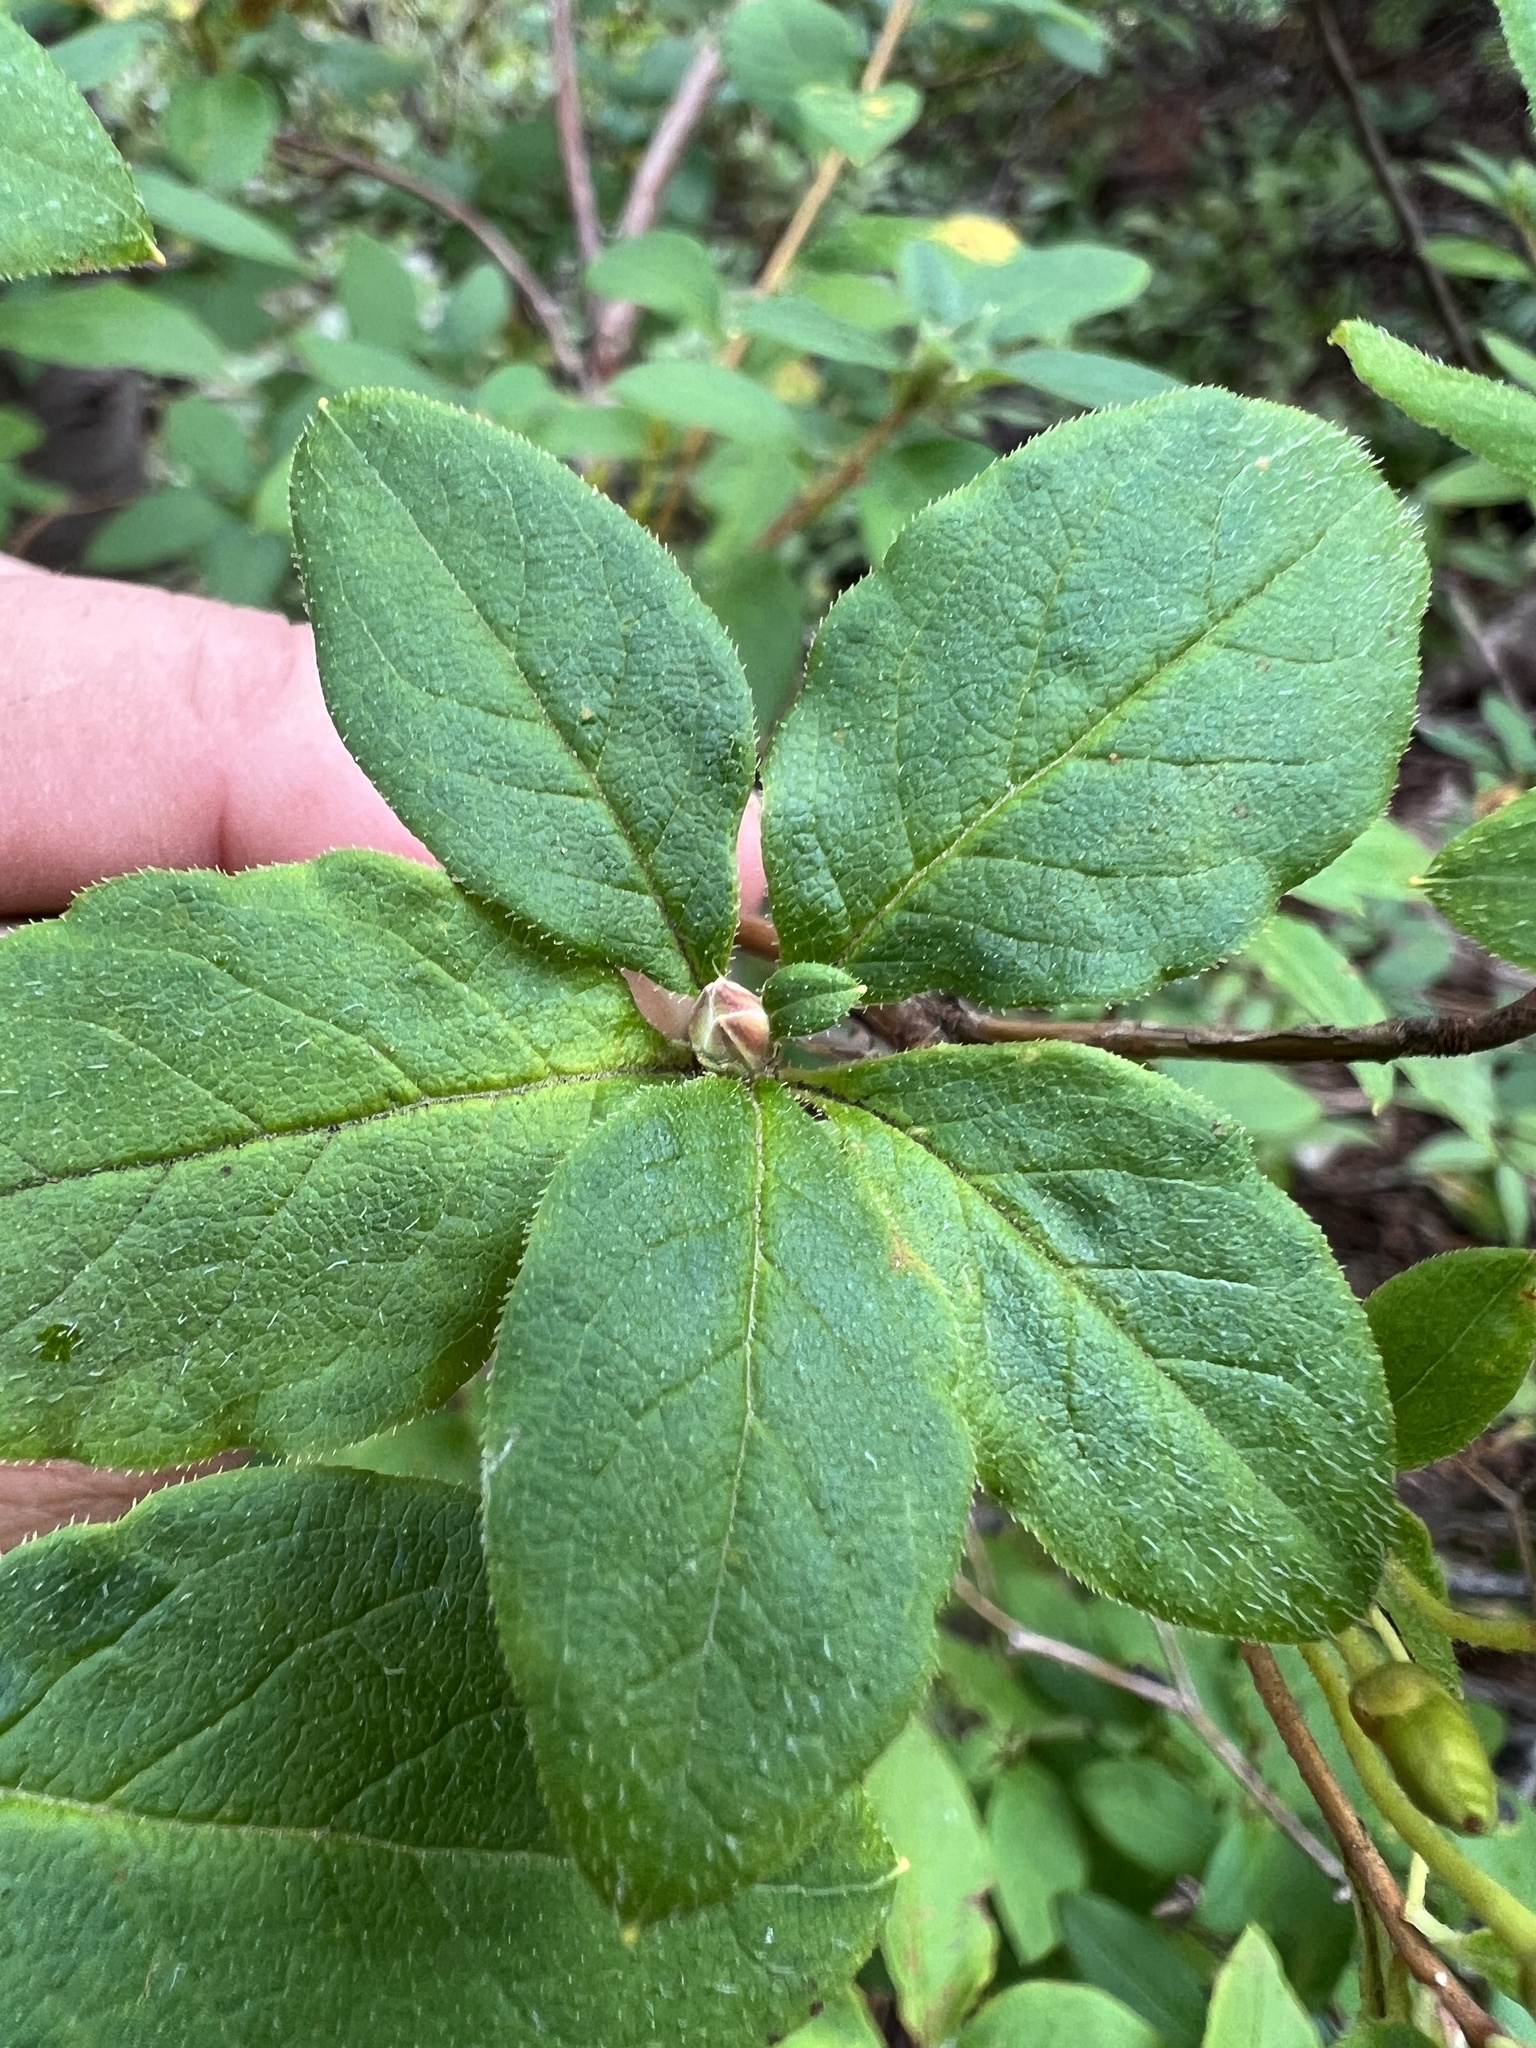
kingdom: Plantae
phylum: Tracheophyta
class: Magnoliopsida
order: Ericales
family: Ericaceae
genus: Rhododendron
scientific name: Rhododendron menziesii
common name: Pacific menziesia
